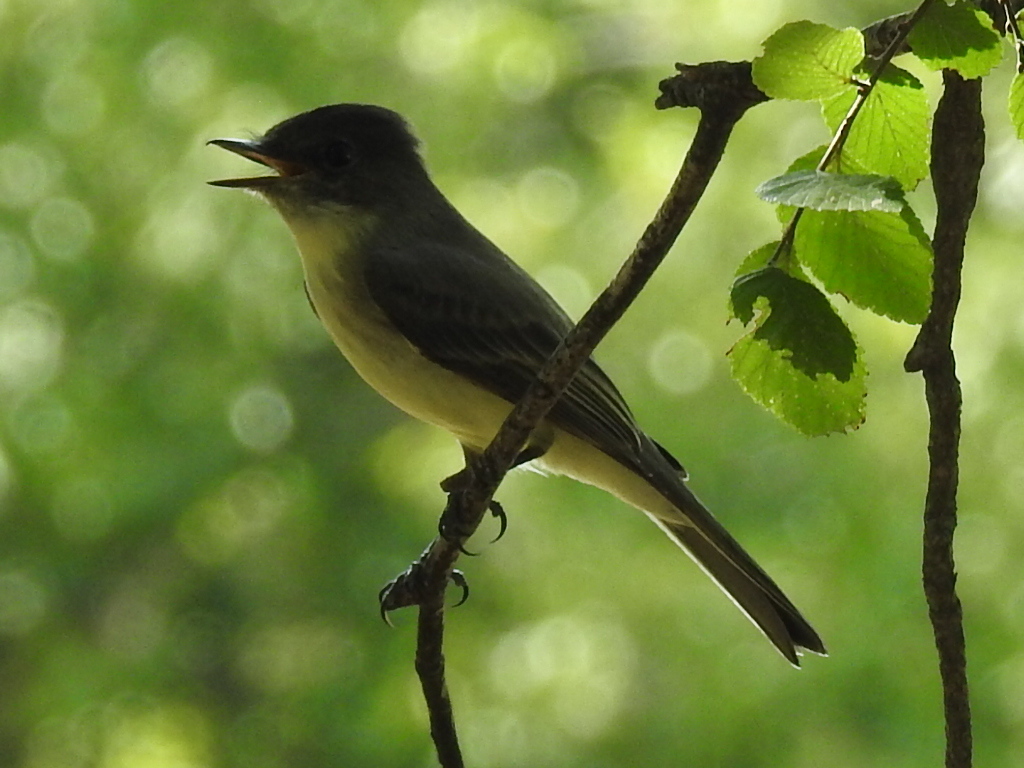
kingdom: Animalia
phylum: Chordata
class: Aves
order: Passeriformes
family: Tyrannidae
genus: Sayornis
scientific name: Sayornis phoebe
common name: Eastern phoebe
